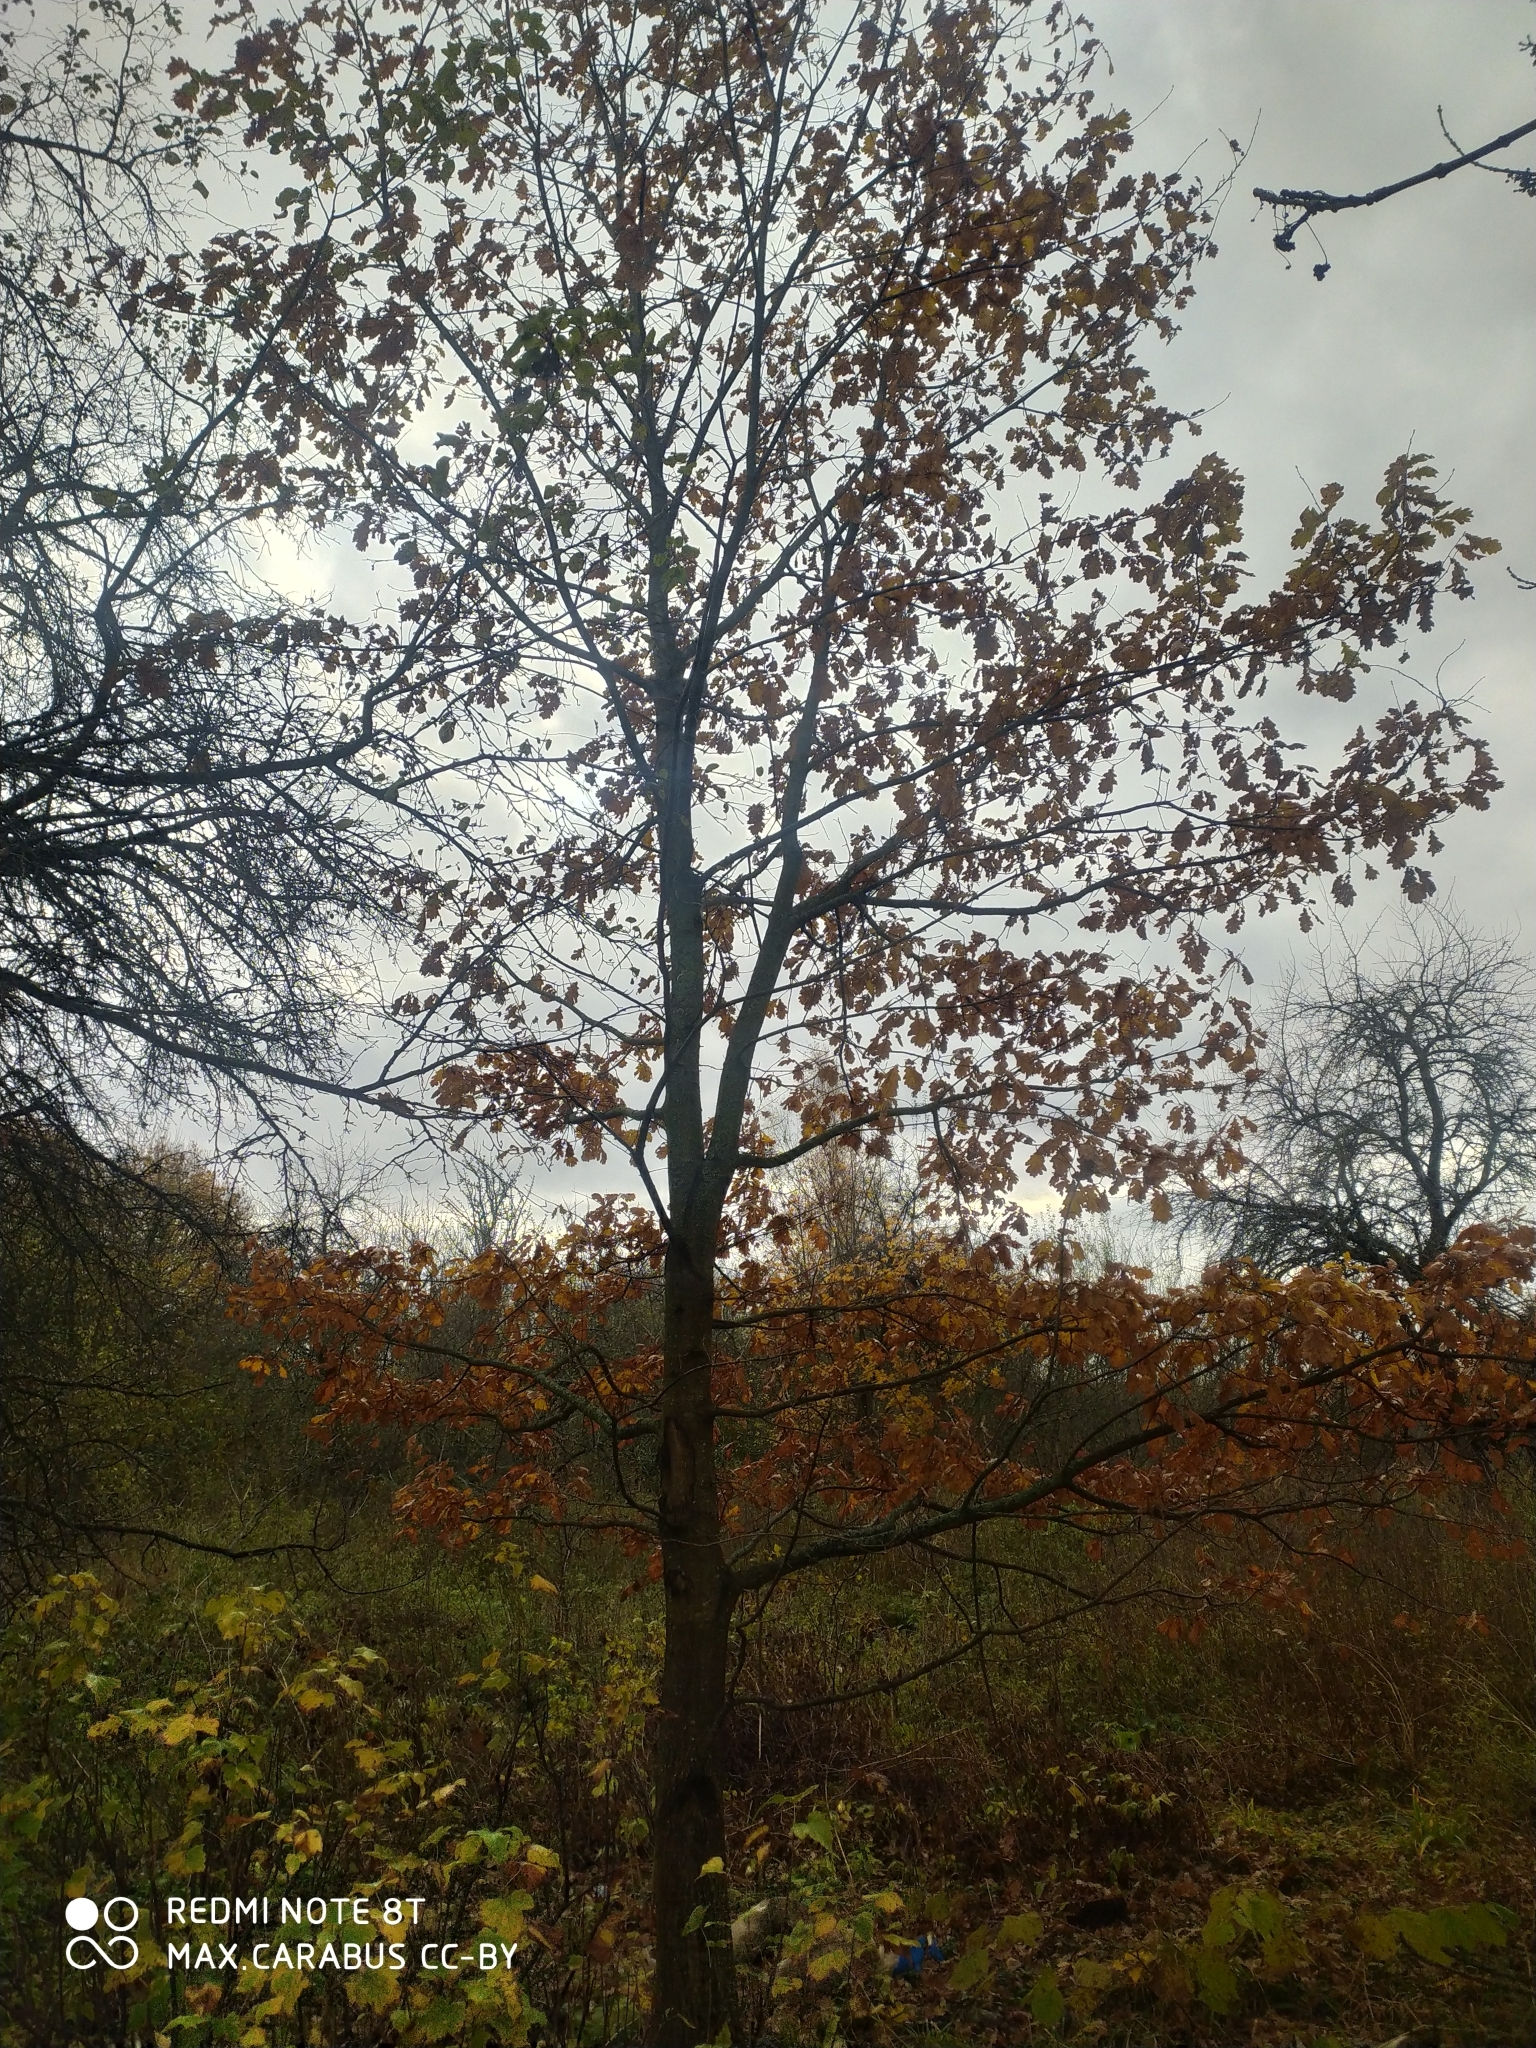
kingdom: Plantae
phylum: Tracheophyta
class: Magnoliopsida
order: Fagales
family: Fagaceae
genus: Quercus
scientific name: Quercus robur
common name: Pedunculate oak
